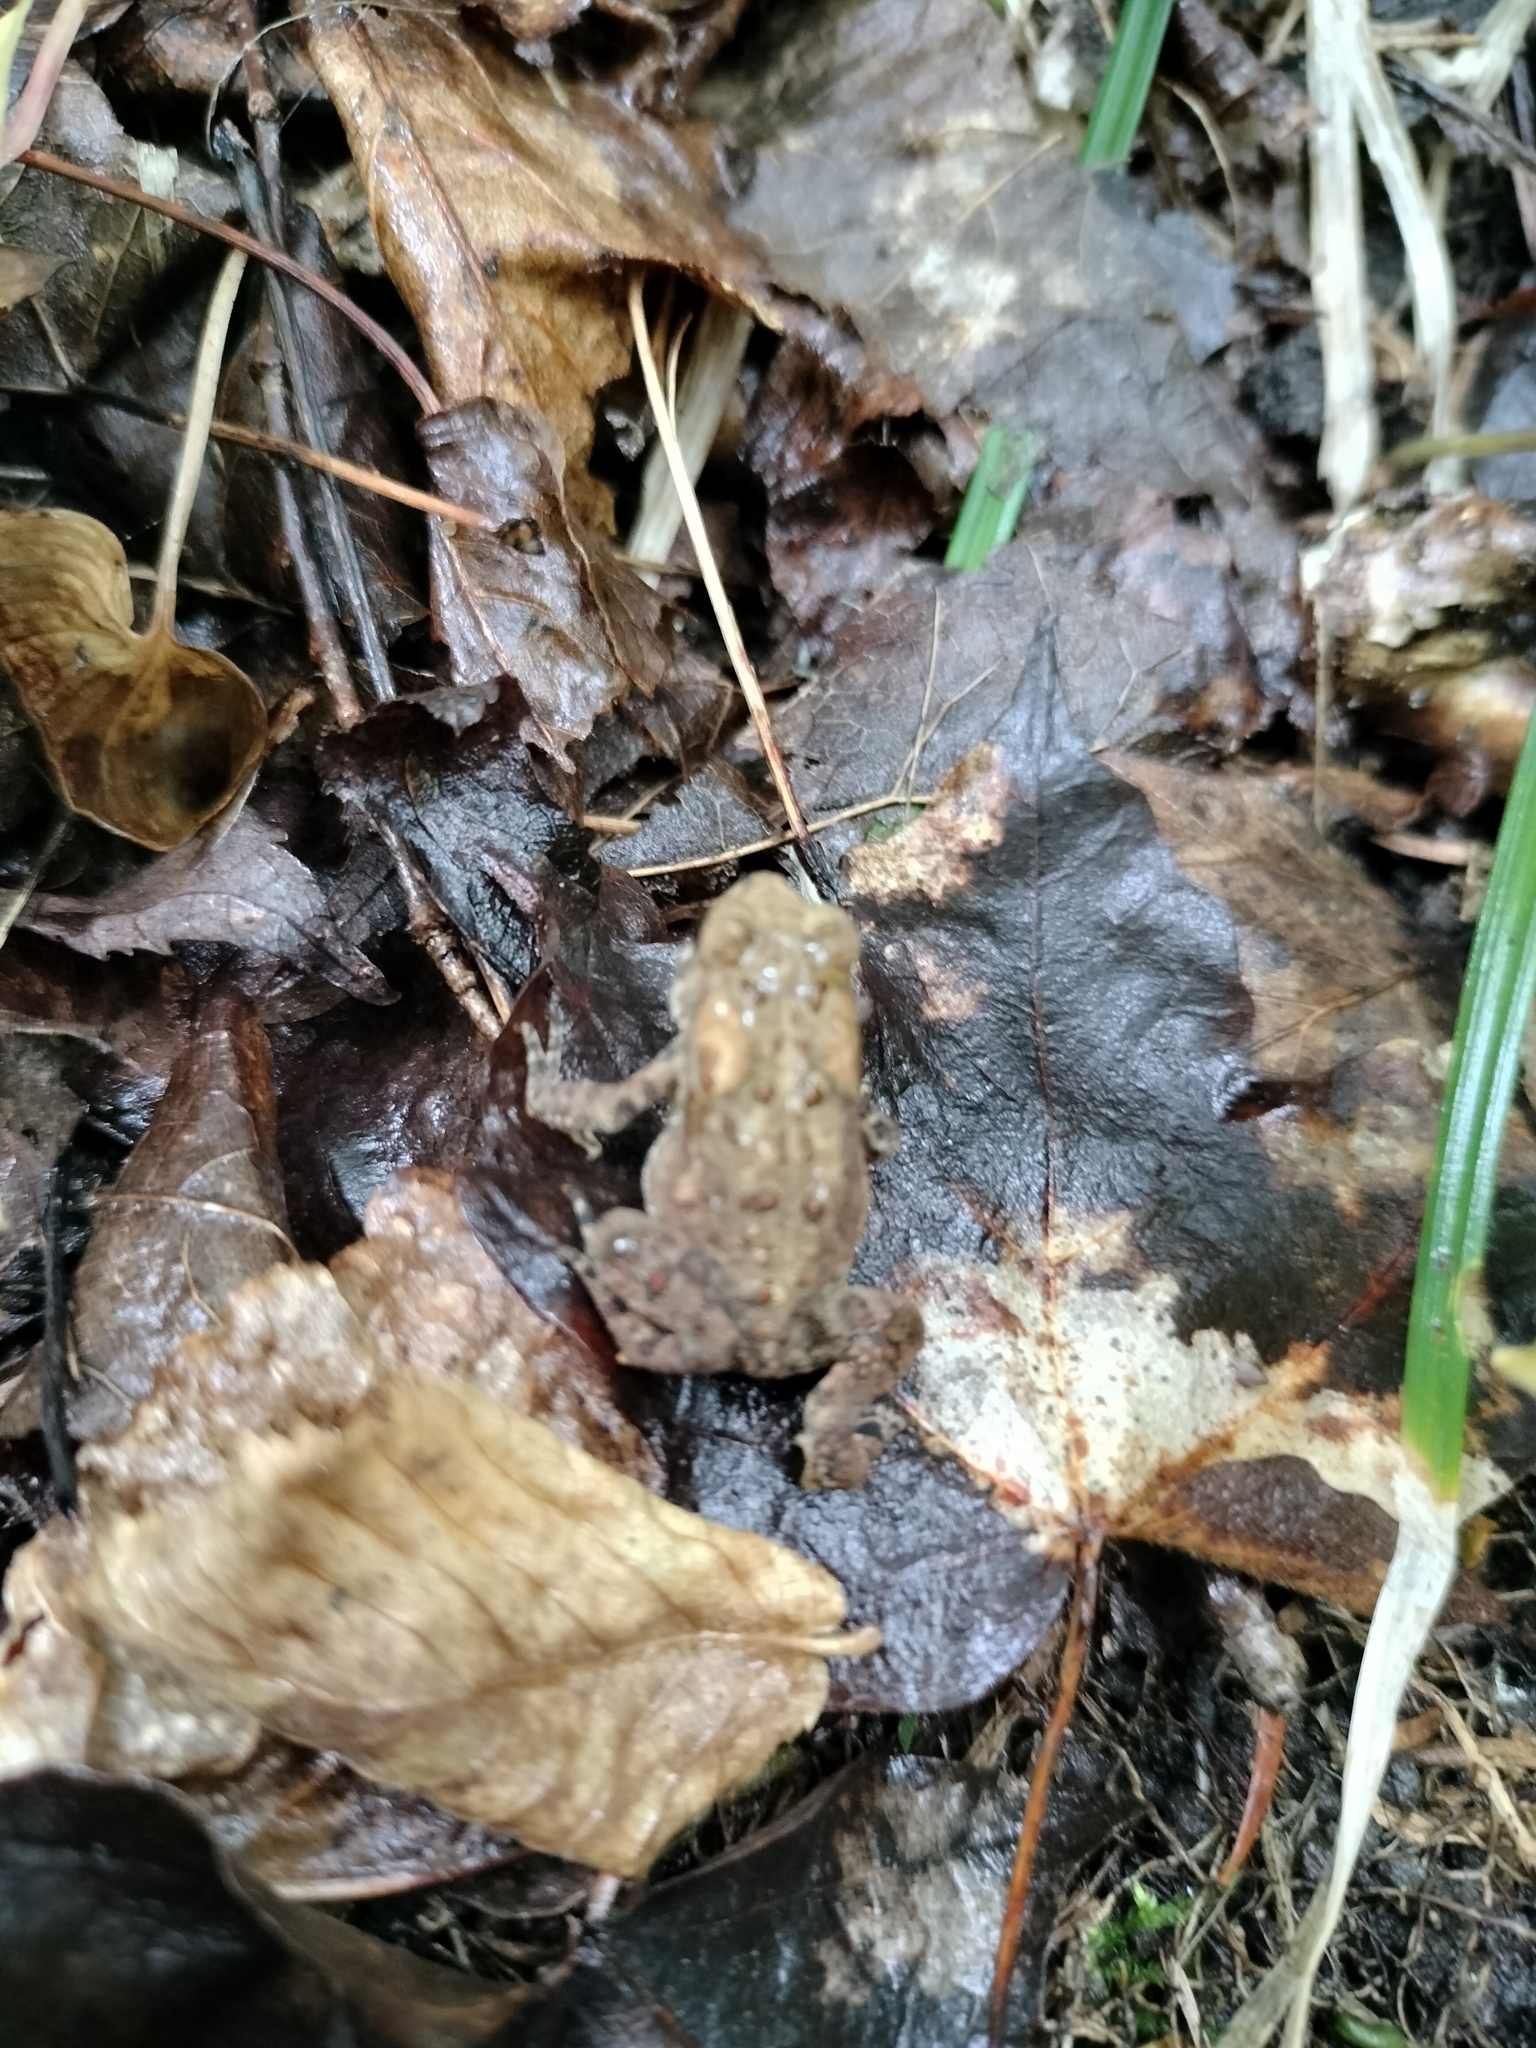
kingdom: Animalia
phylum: Chordata
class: Amphibia
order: Anura
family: Bufonidae
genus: Anaxyrus
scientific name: Anaxyrus americanus
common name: American toad
